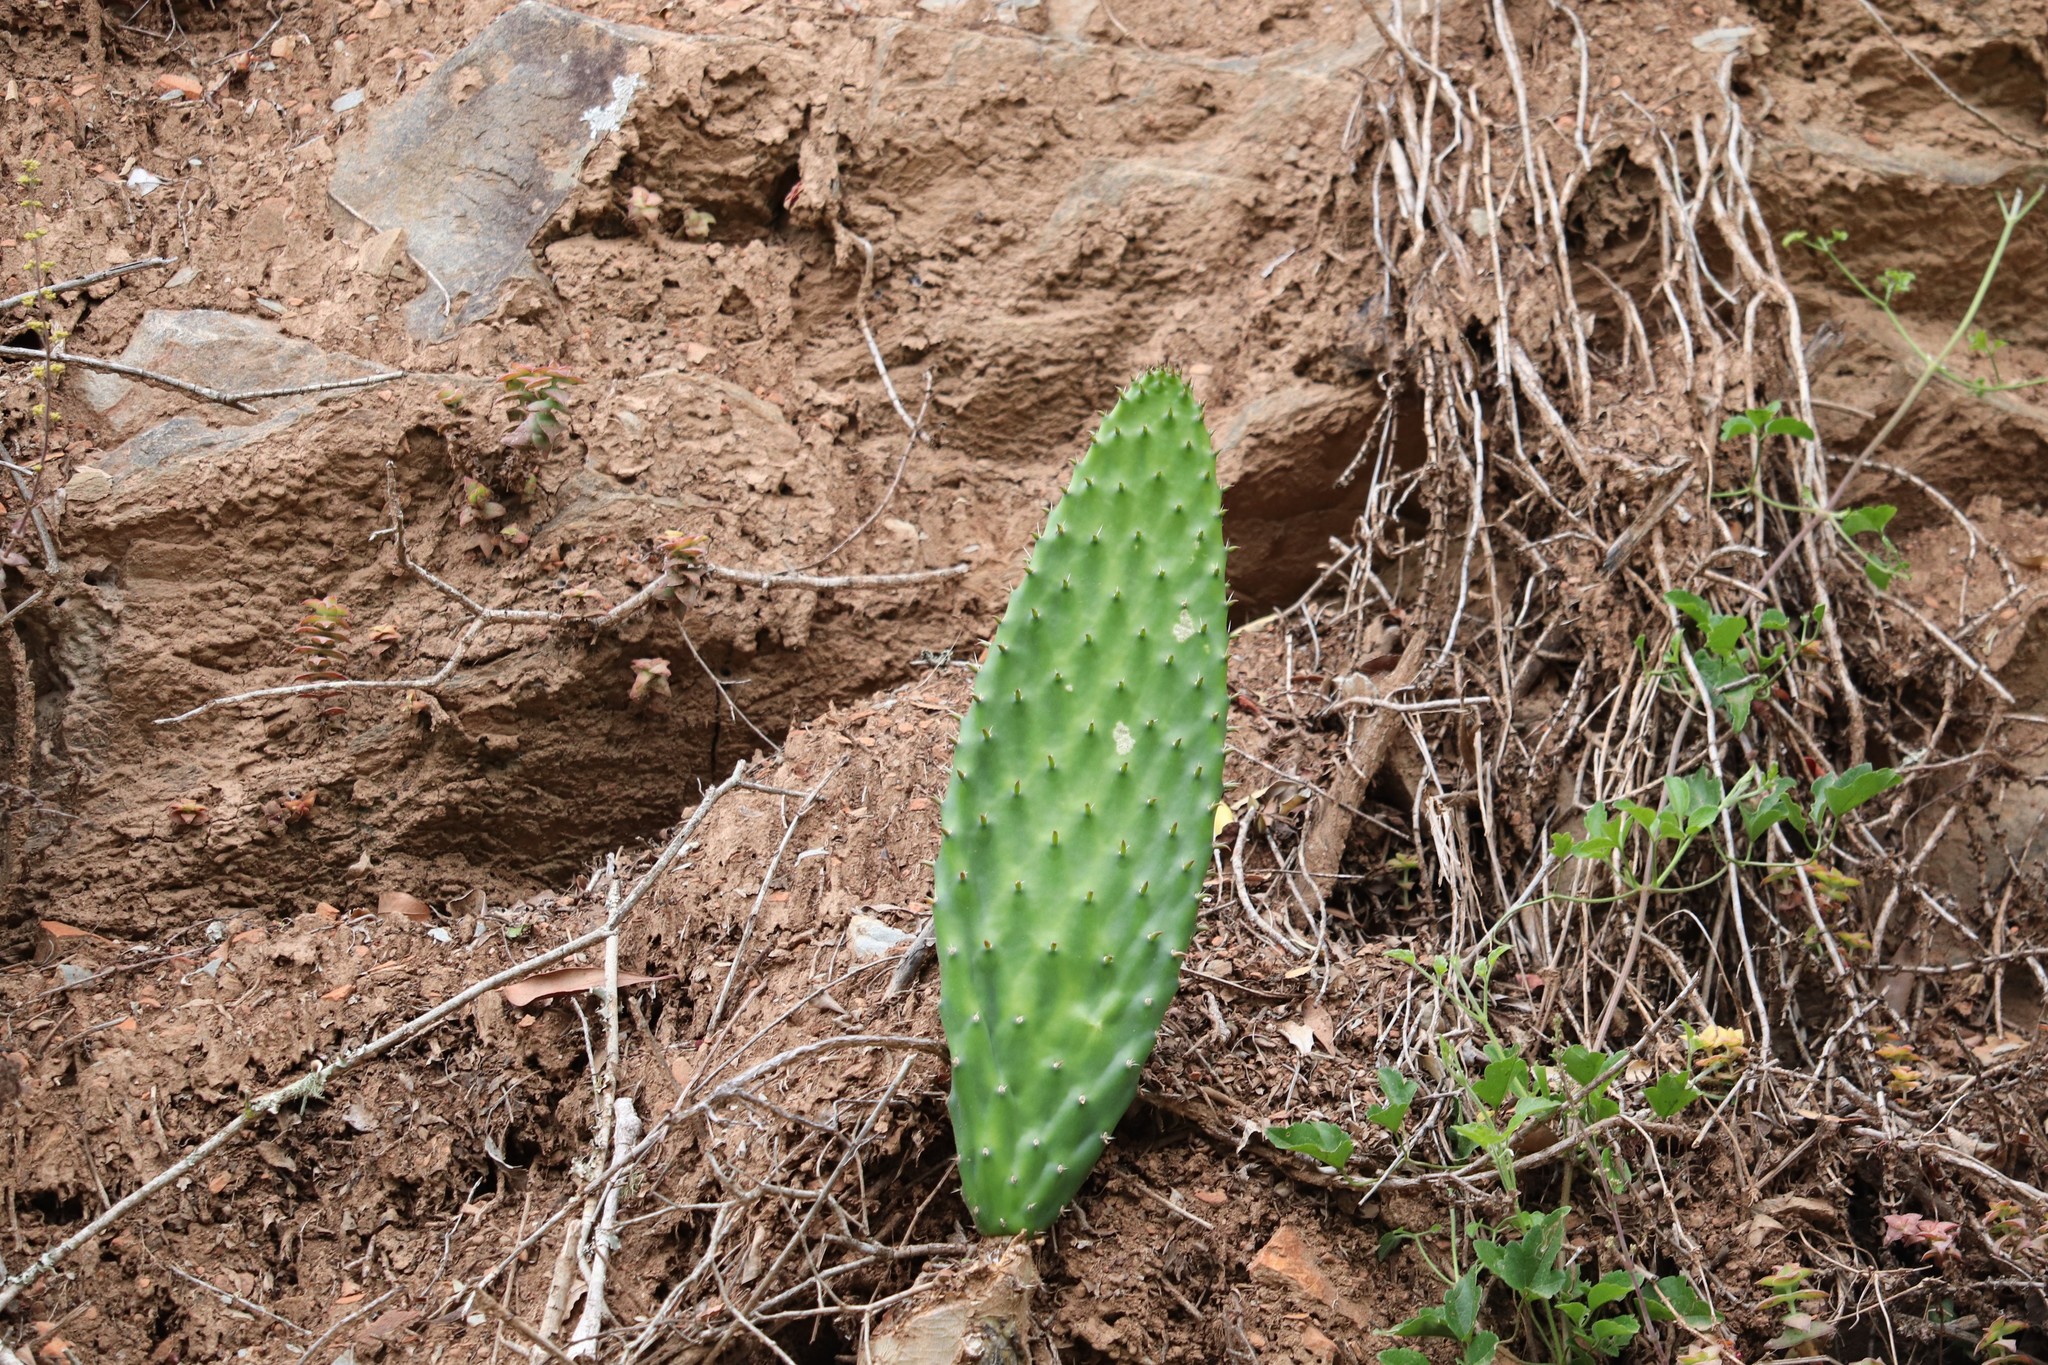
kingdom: Plantae
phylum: Tracheophyta
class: Magnoliopsida
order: Caryophyllales
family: Cactaceae
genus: Opuntia
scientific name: Opuntia ficus-indica
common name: Barbary fig
